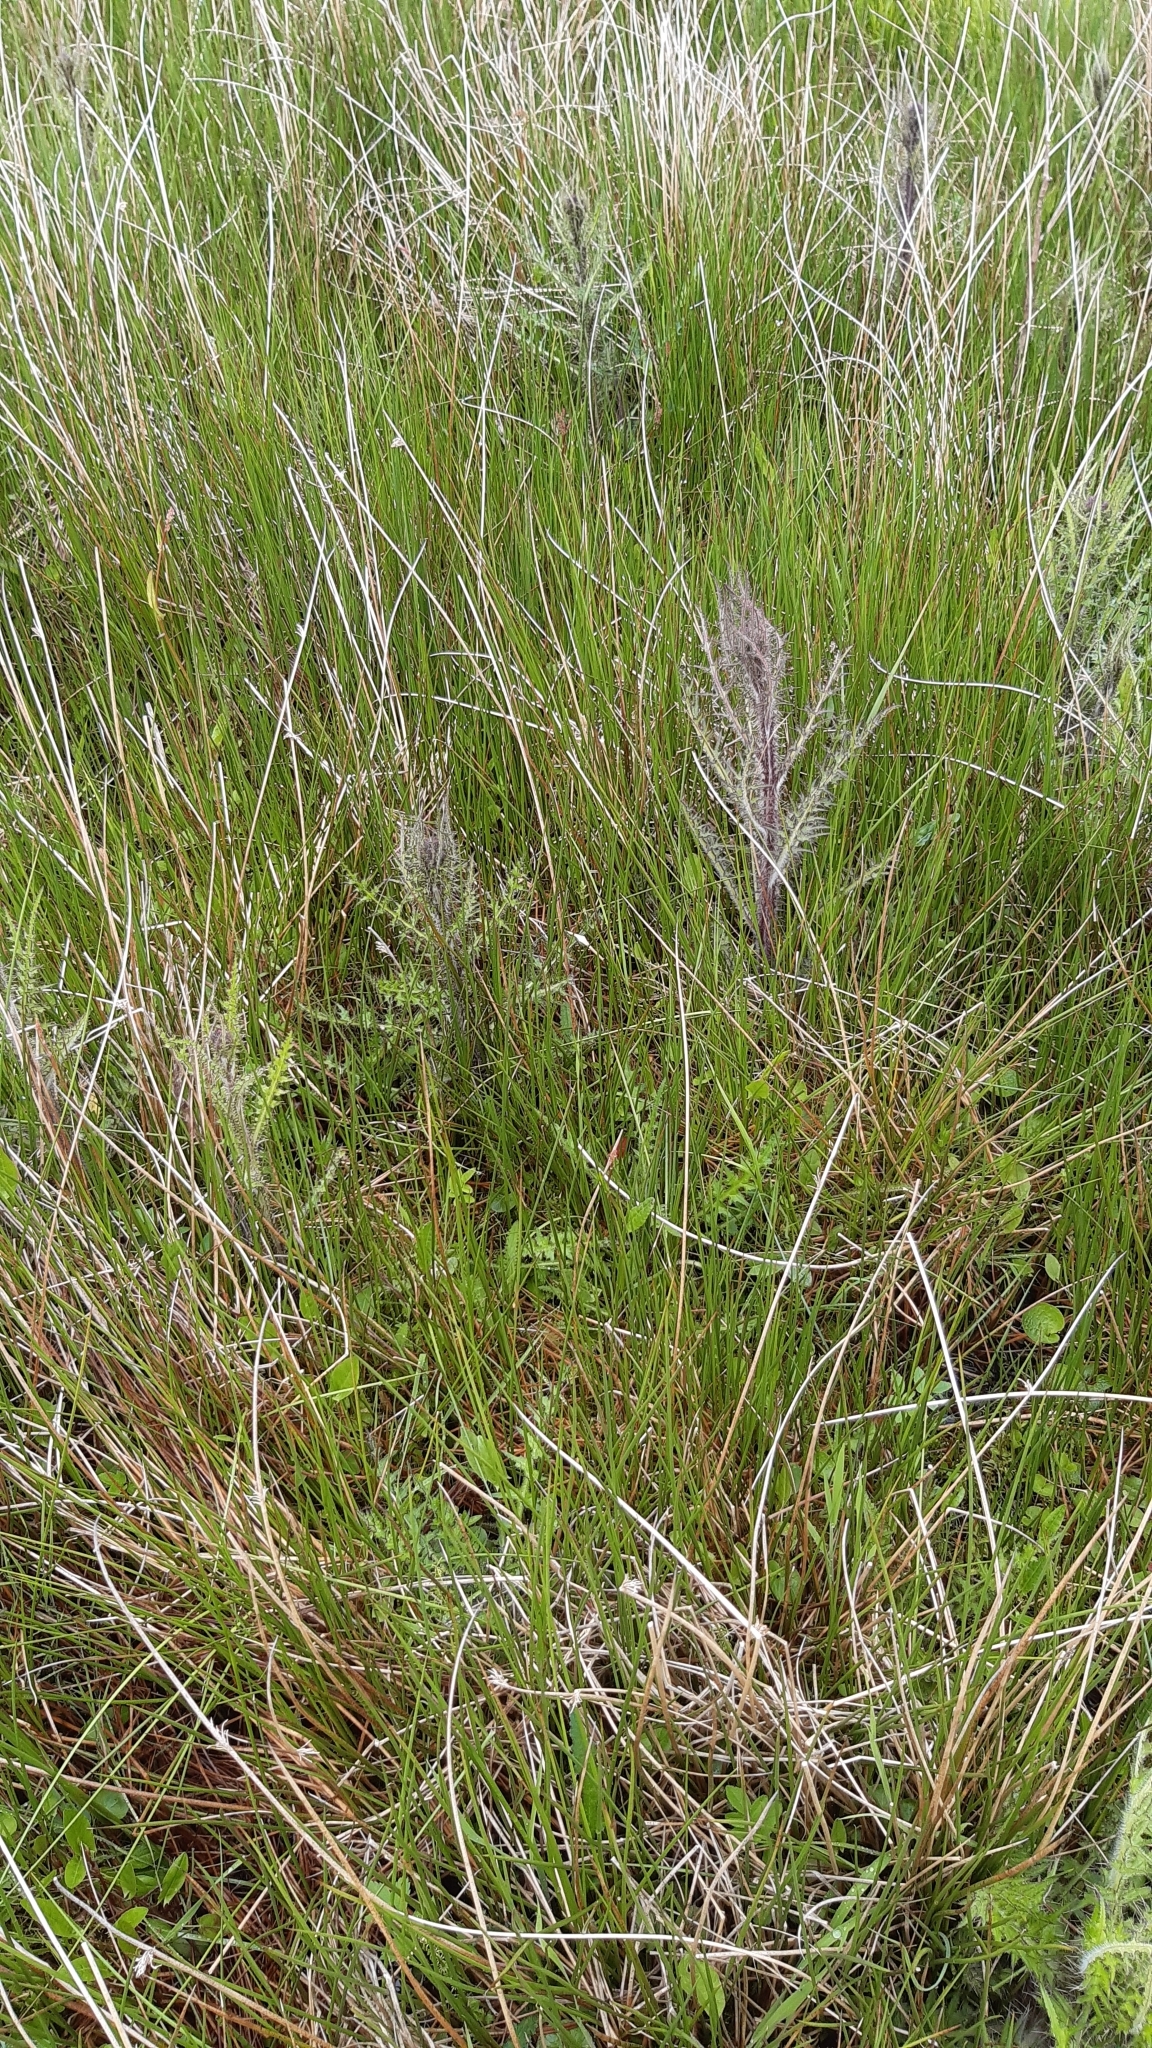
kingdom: Plantae
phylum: Tracheophyta
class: Magnoliopsida
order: Asterales
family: Asteraceae
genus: Cirsium
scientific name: Cirsium palustre
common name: Marsh thistle
